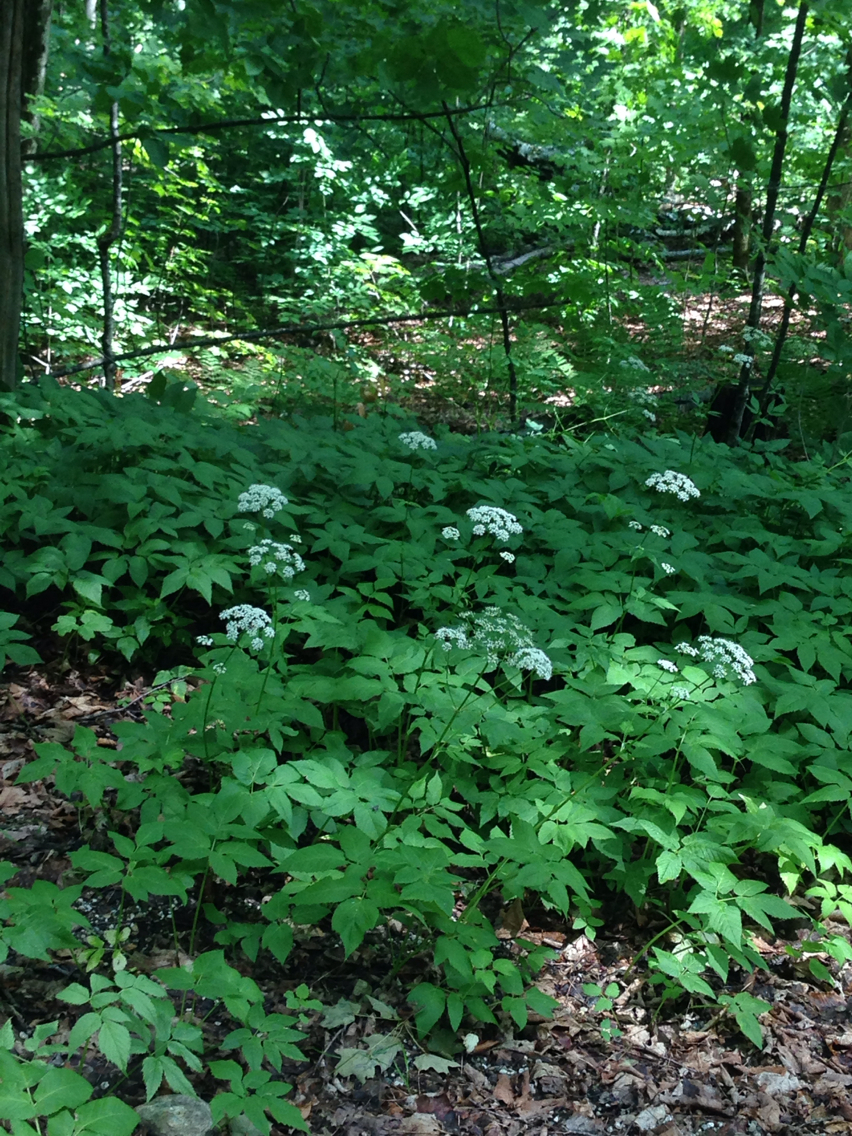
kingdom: Plantae
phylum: Tracheophyta
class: Magnoliopsida
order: Apiales
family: Apiaceae
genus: Aegopodium
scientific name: Aegopodium podagraria
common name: Ground-elder
